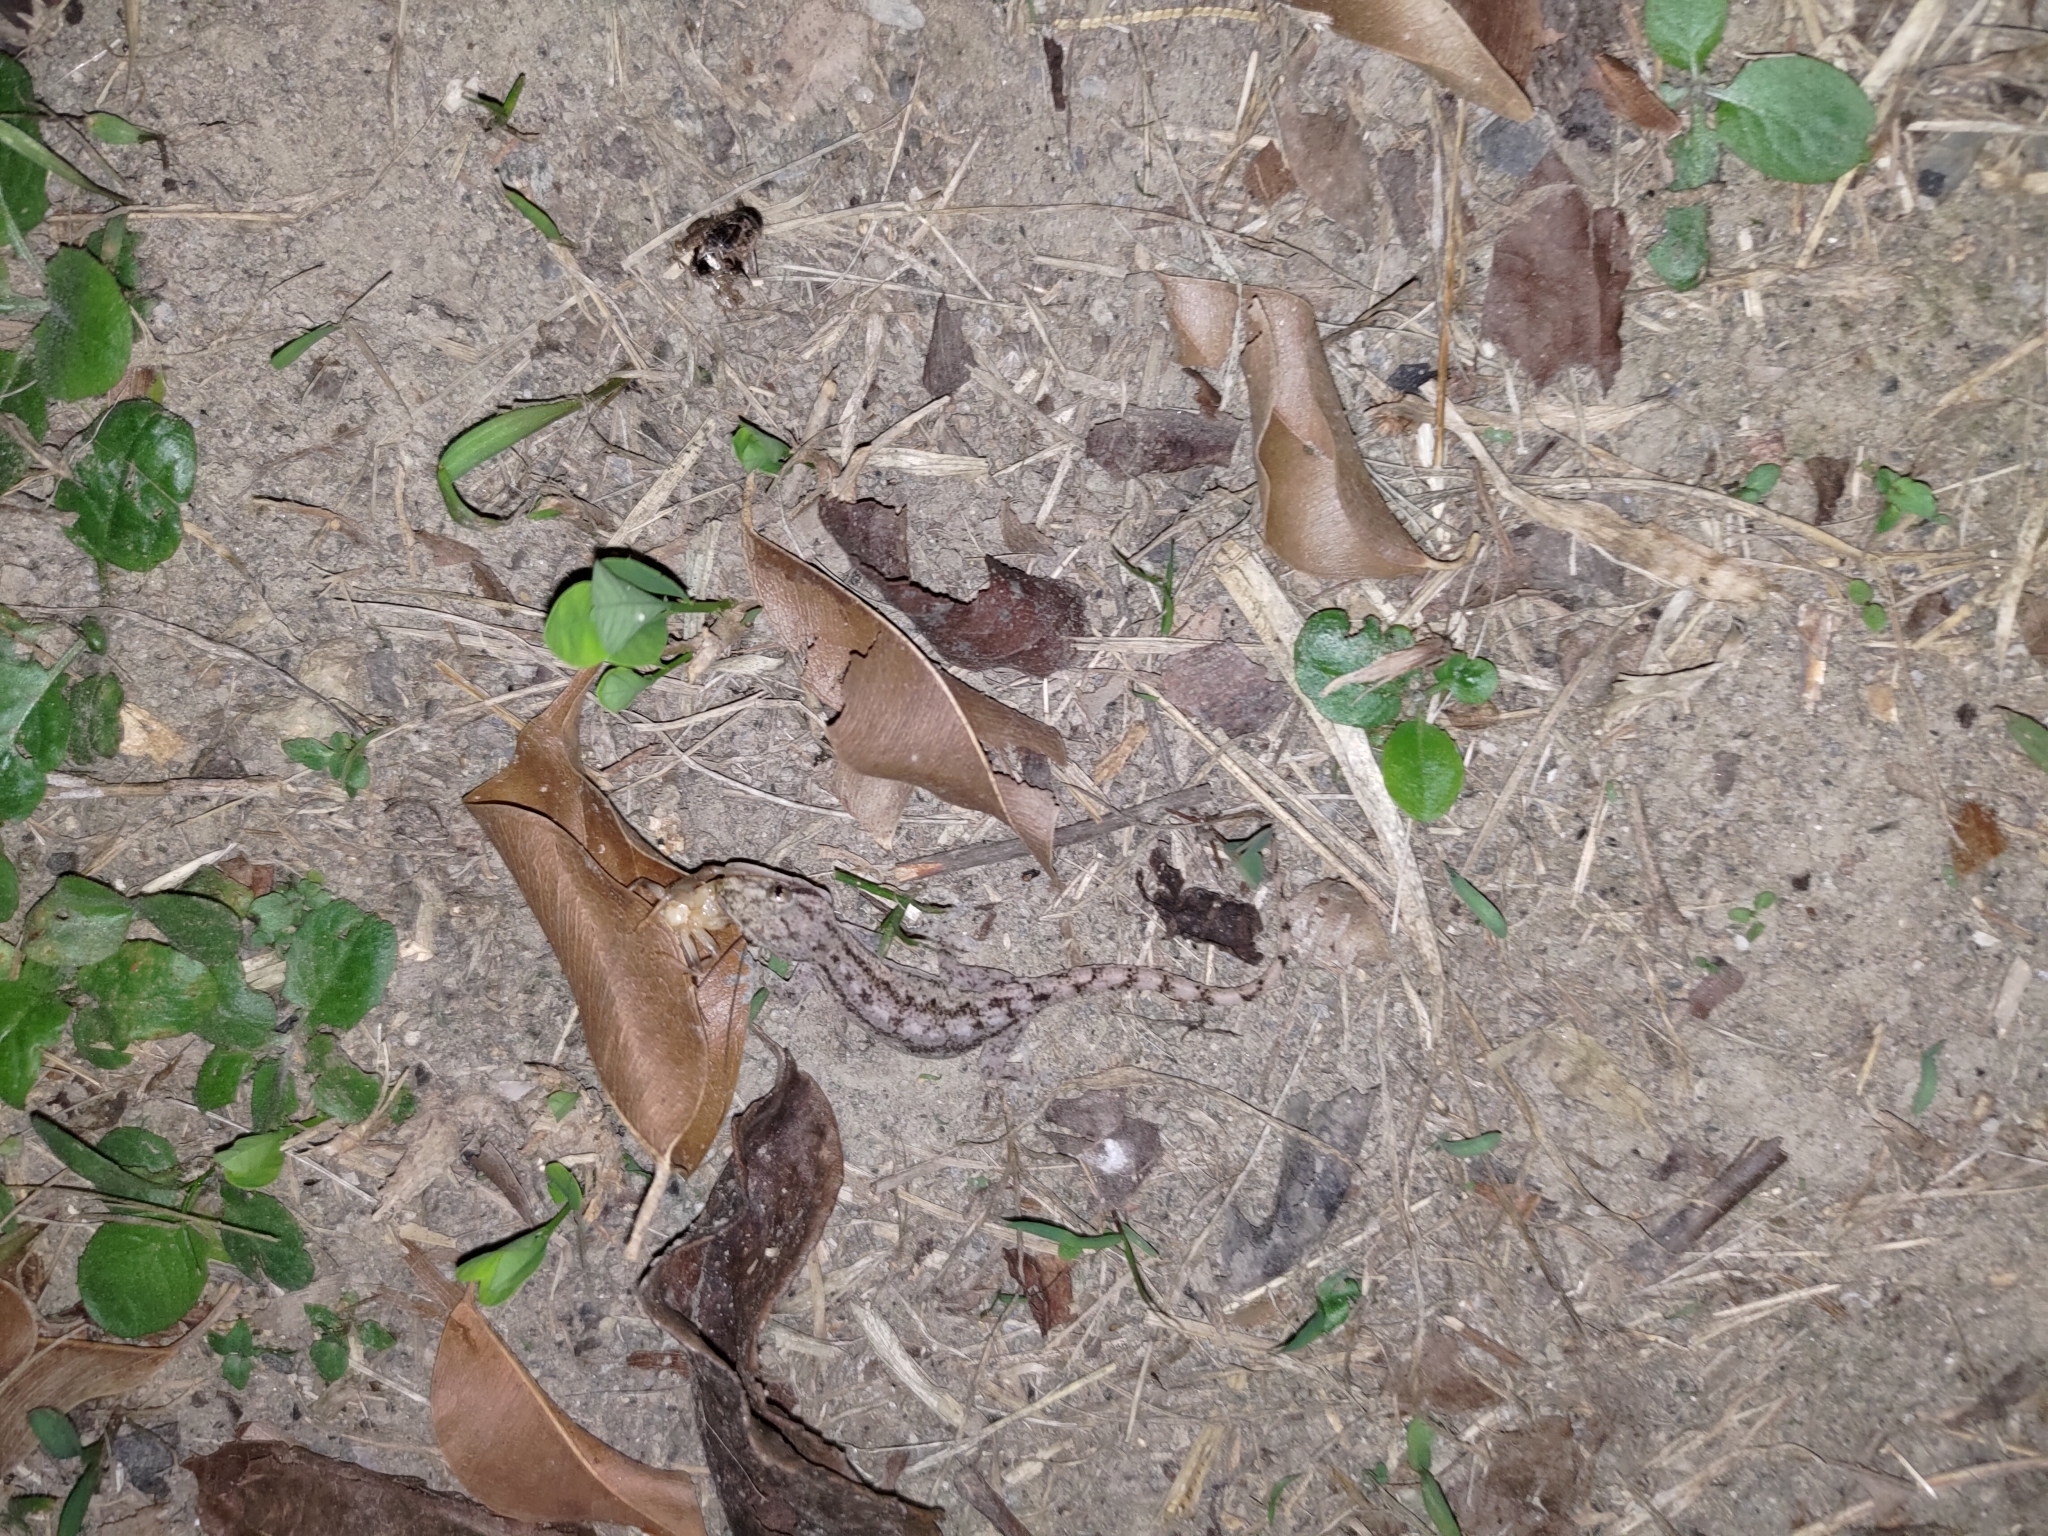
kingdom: Animalia
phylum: Chordata
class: Squamata
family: Gekkonidae
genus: Hemidactylus
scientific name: Hemidactylus frenatus
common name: Common house gecko
